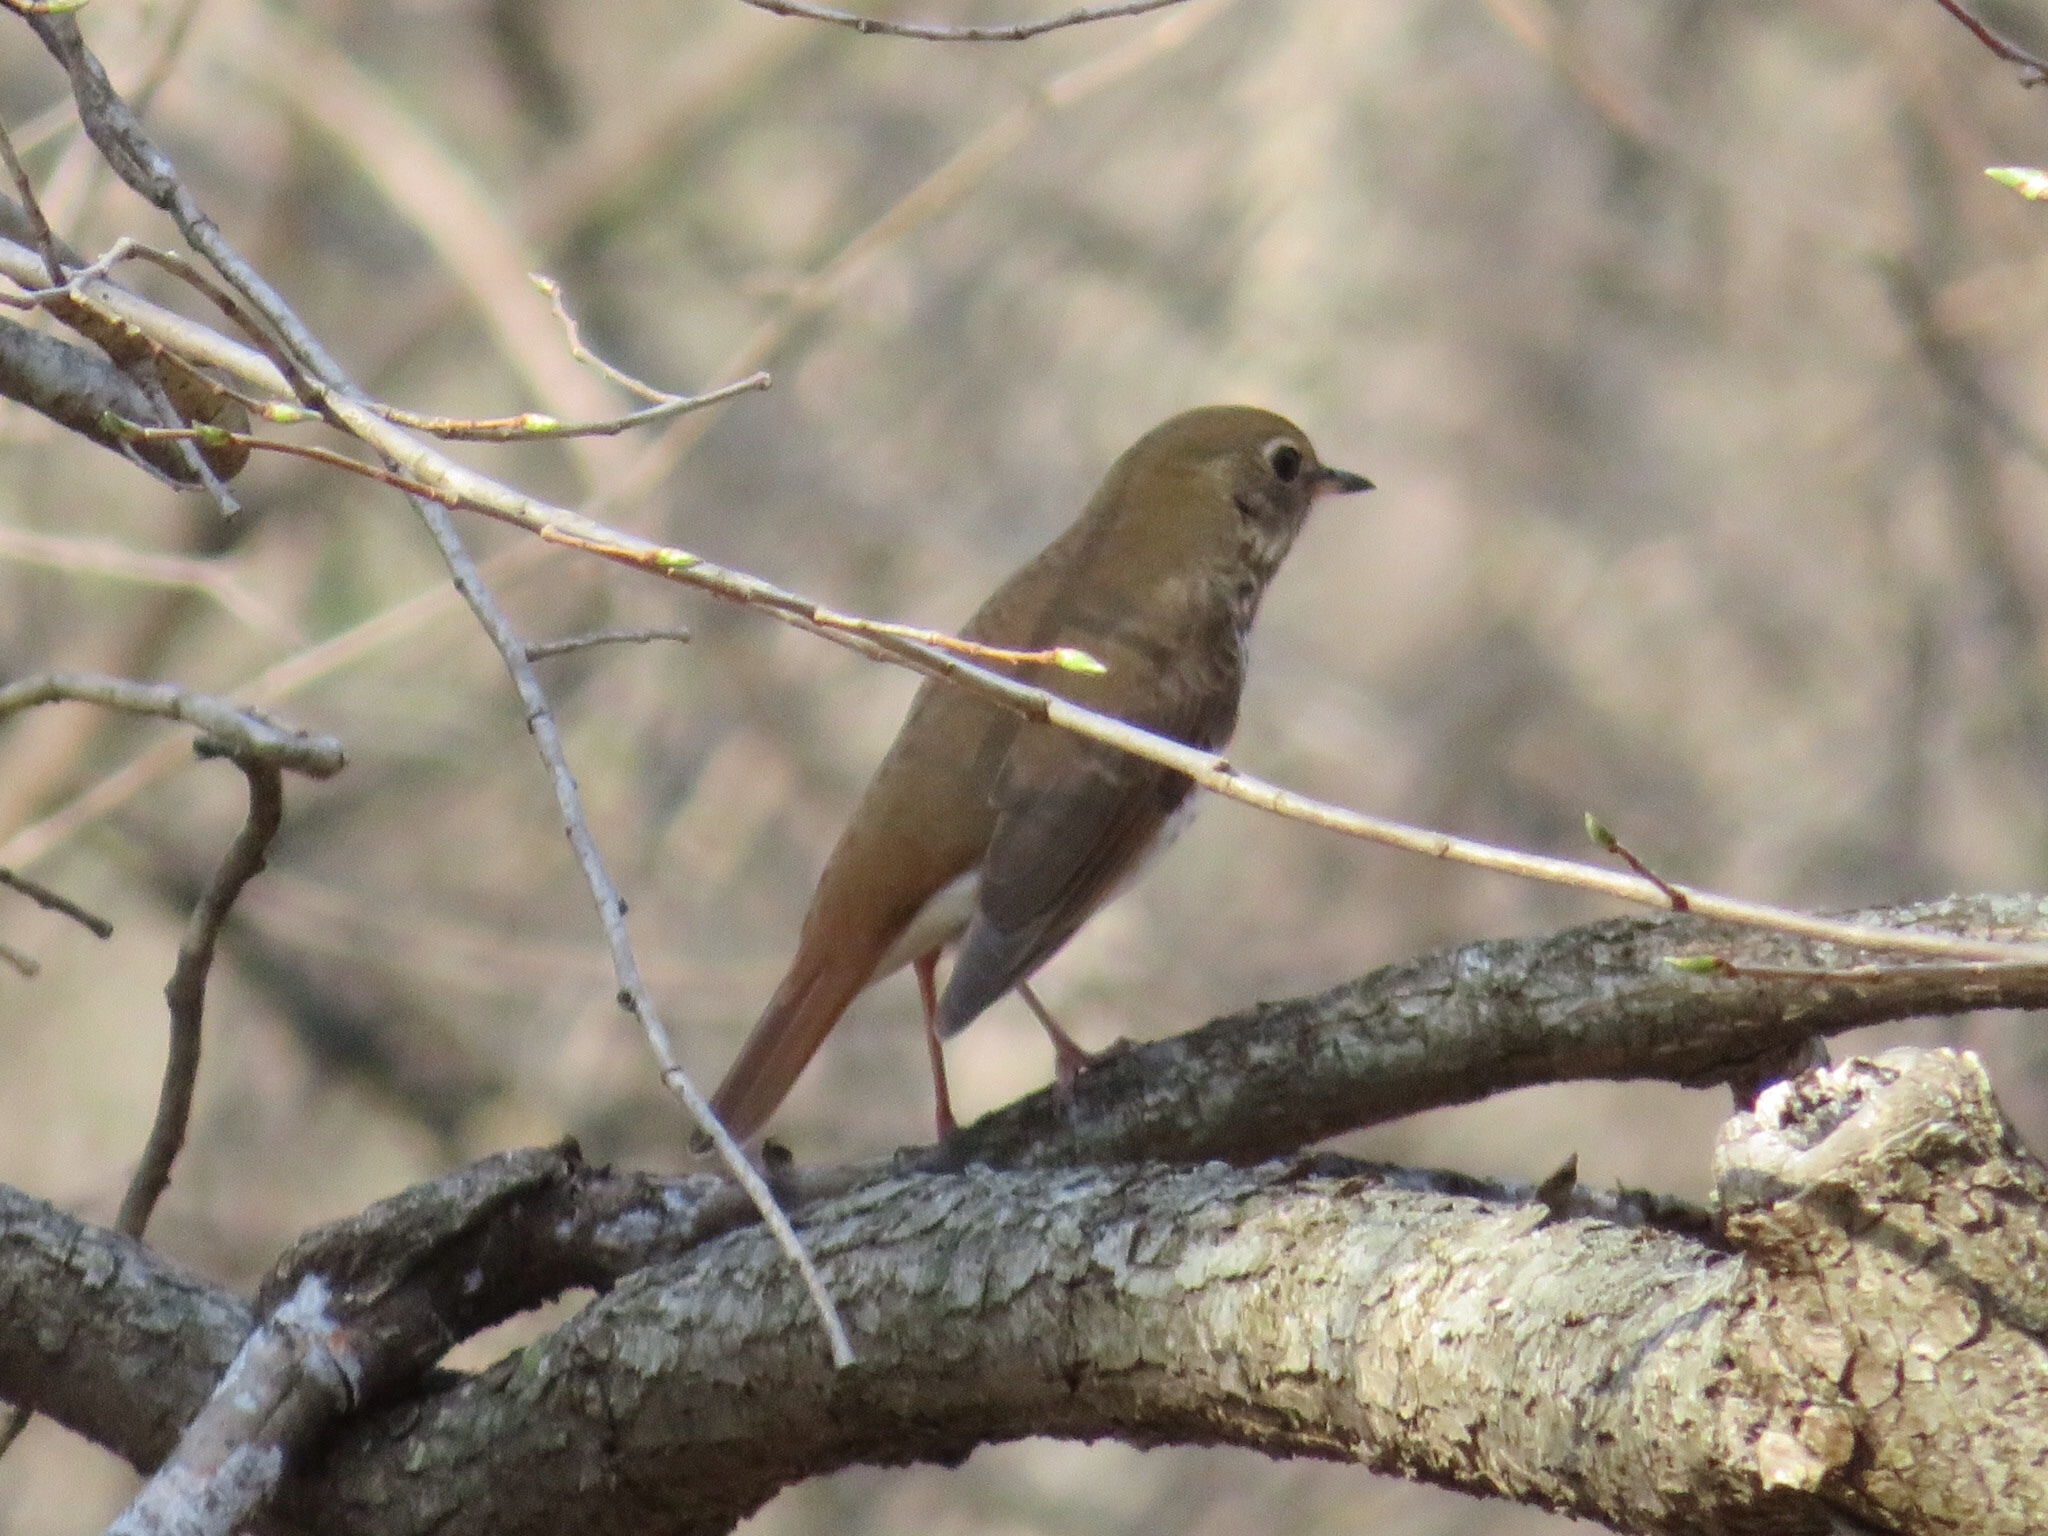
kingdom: Animalia
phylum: Chordata
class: Aves
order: Passeriformes
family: Turdidae
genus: Catharus
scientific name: Catharus minimus
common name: Grey-cheeked thrush
